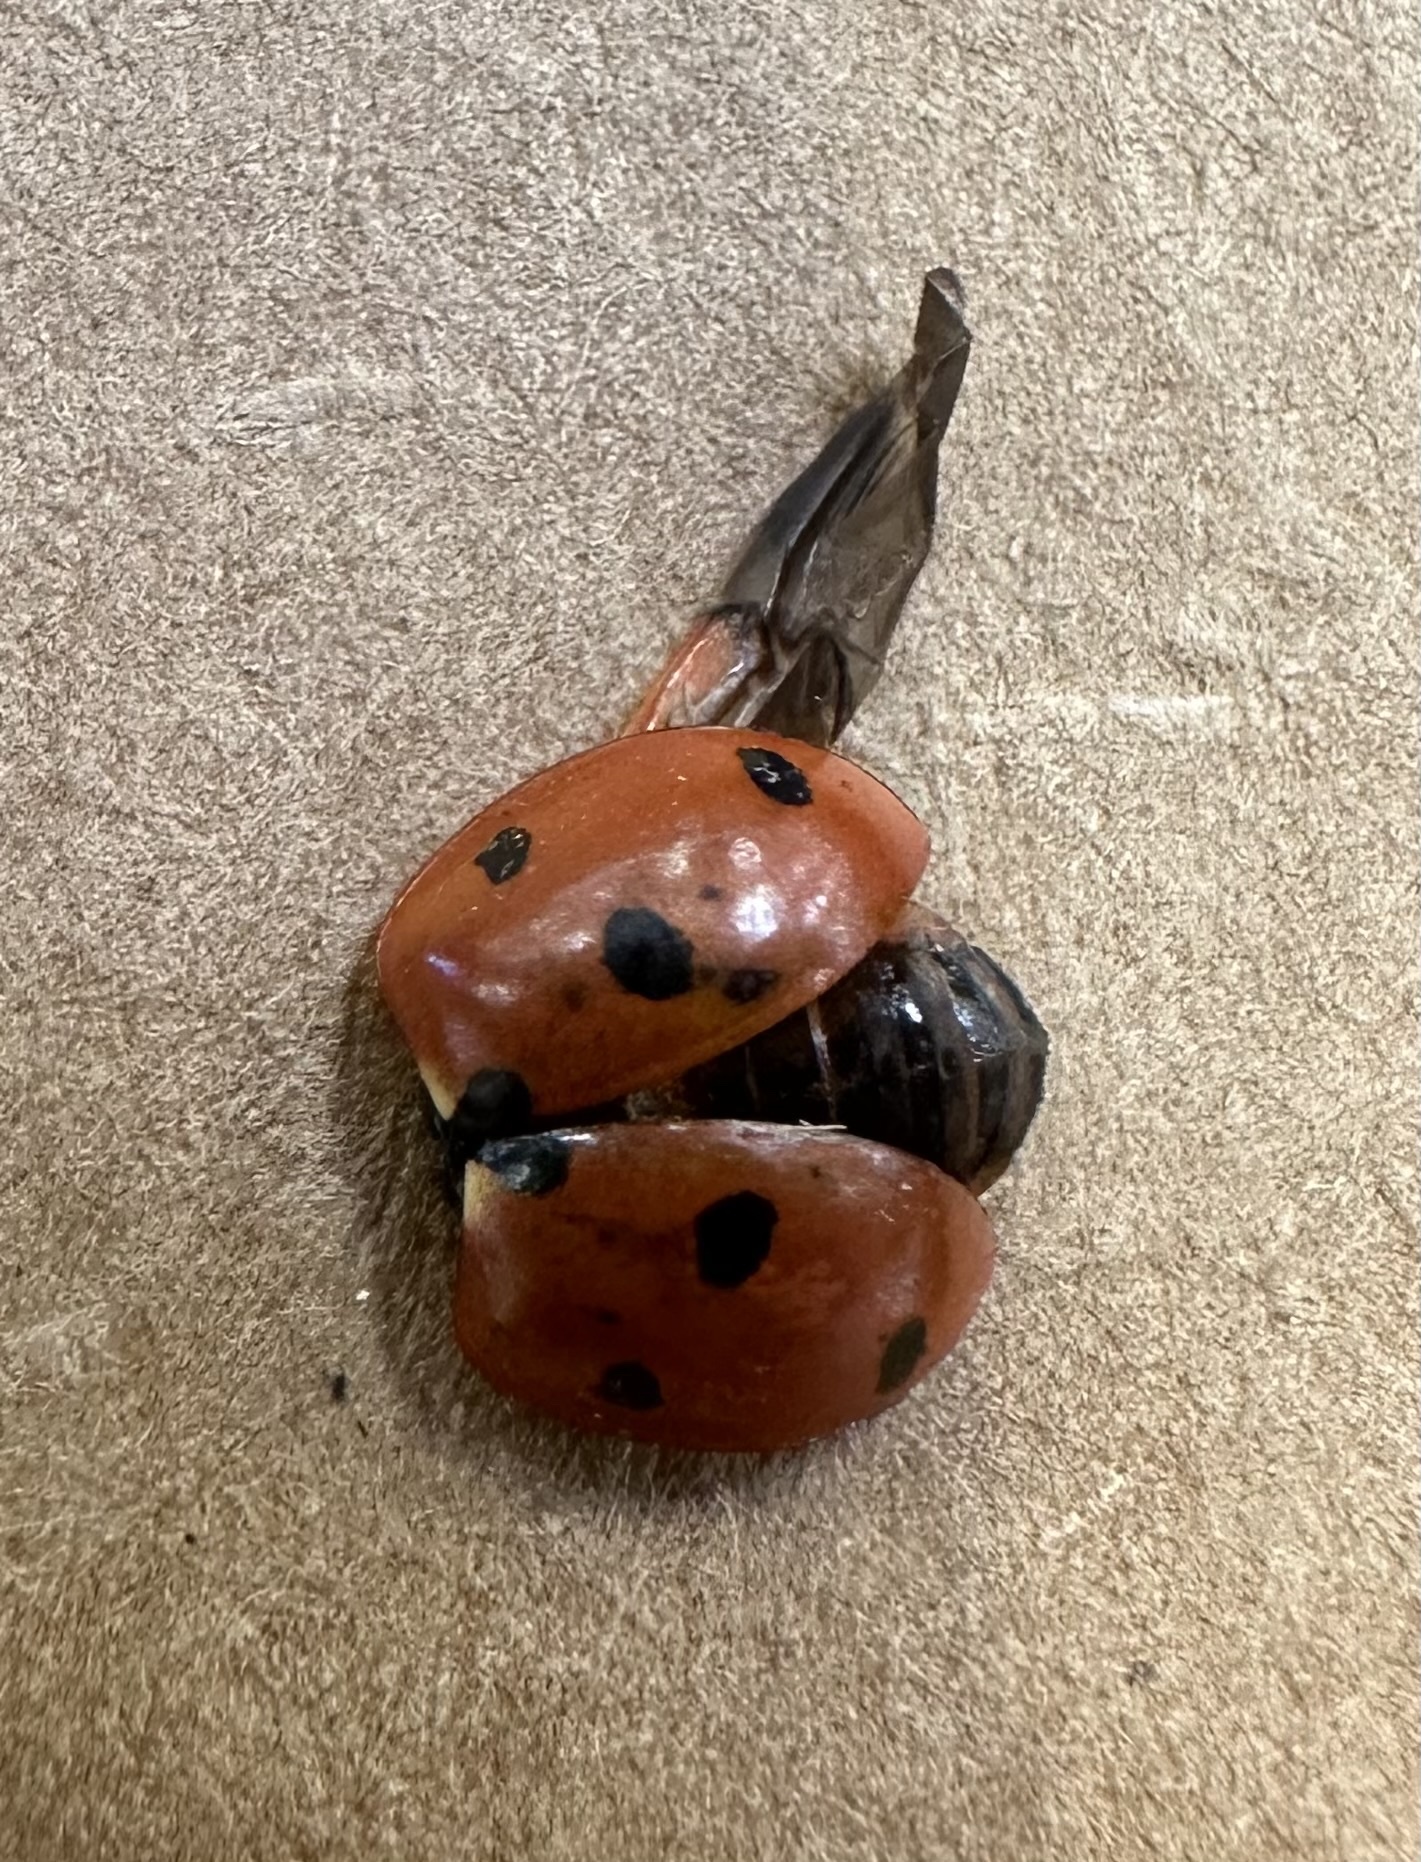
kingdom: Animalia
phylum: Arthropoda
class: Insecta
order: Coleoptera
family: Coccinellidae
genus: Coccinella
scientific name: Coccinella septempunctata
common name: Sevenspotted lady beetle
